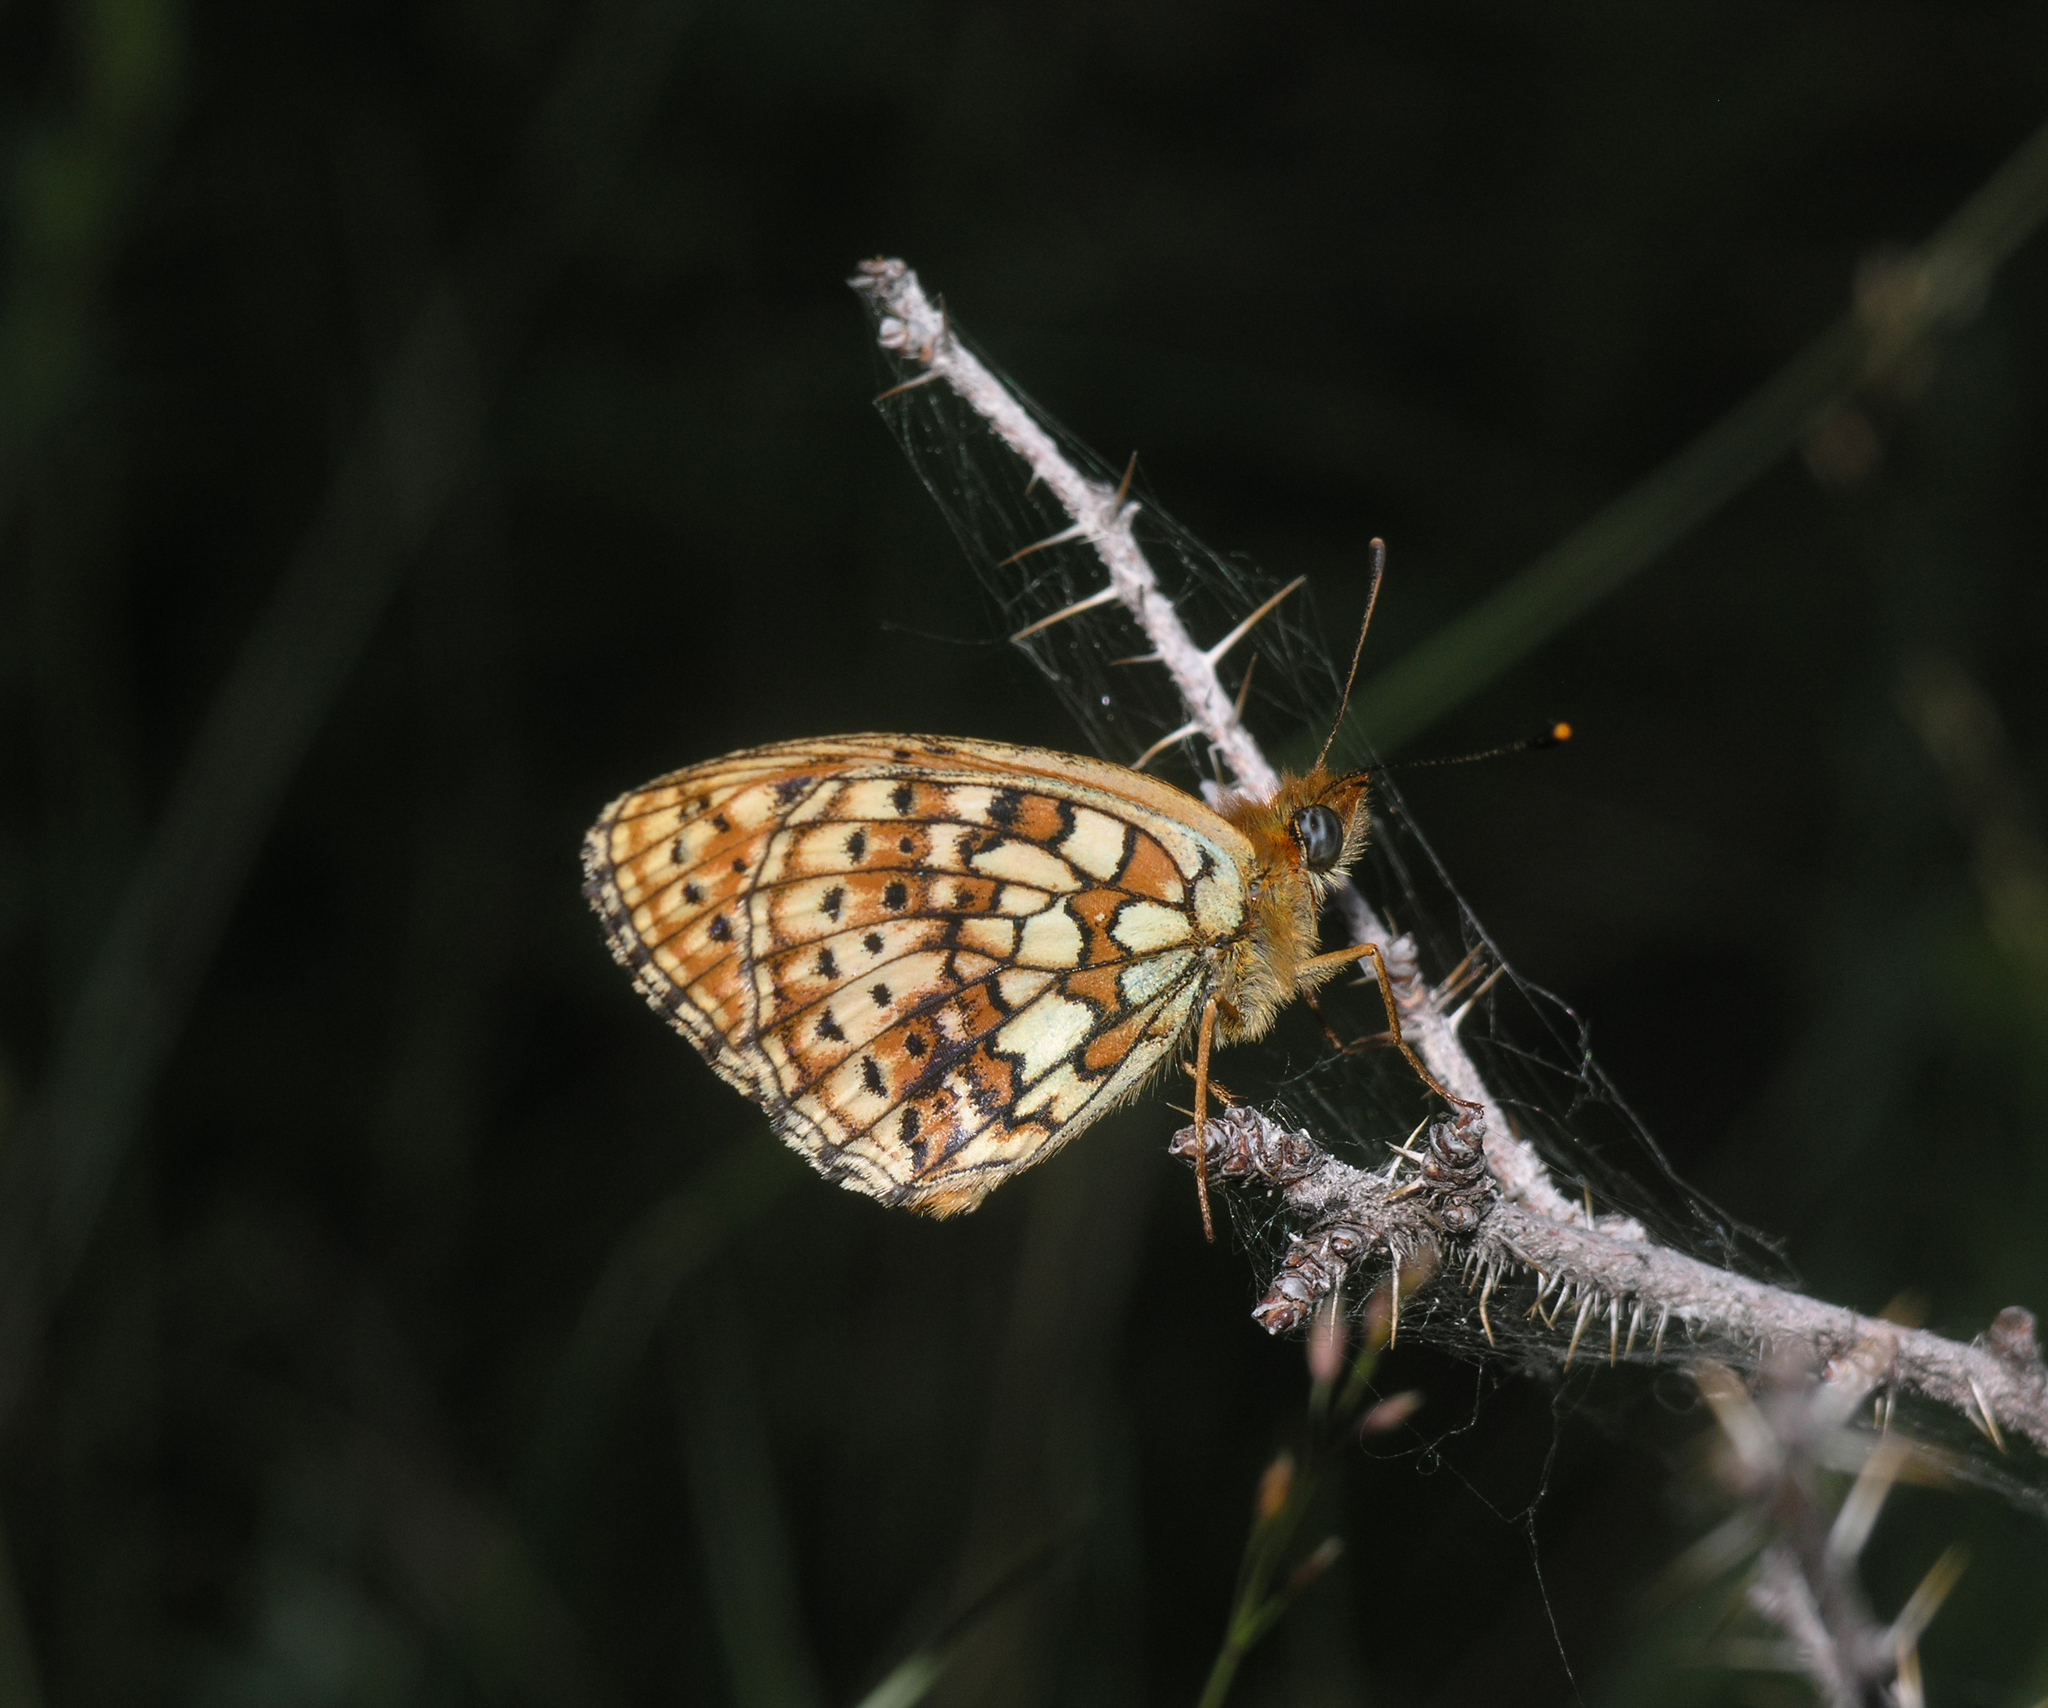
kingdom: Animalia
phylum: Arthropoda
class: Insecta
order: Lepidoptera
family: Nymphalidae
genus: Brenthis
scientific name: Brenthis hecate
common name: Twin-spot fritillary
